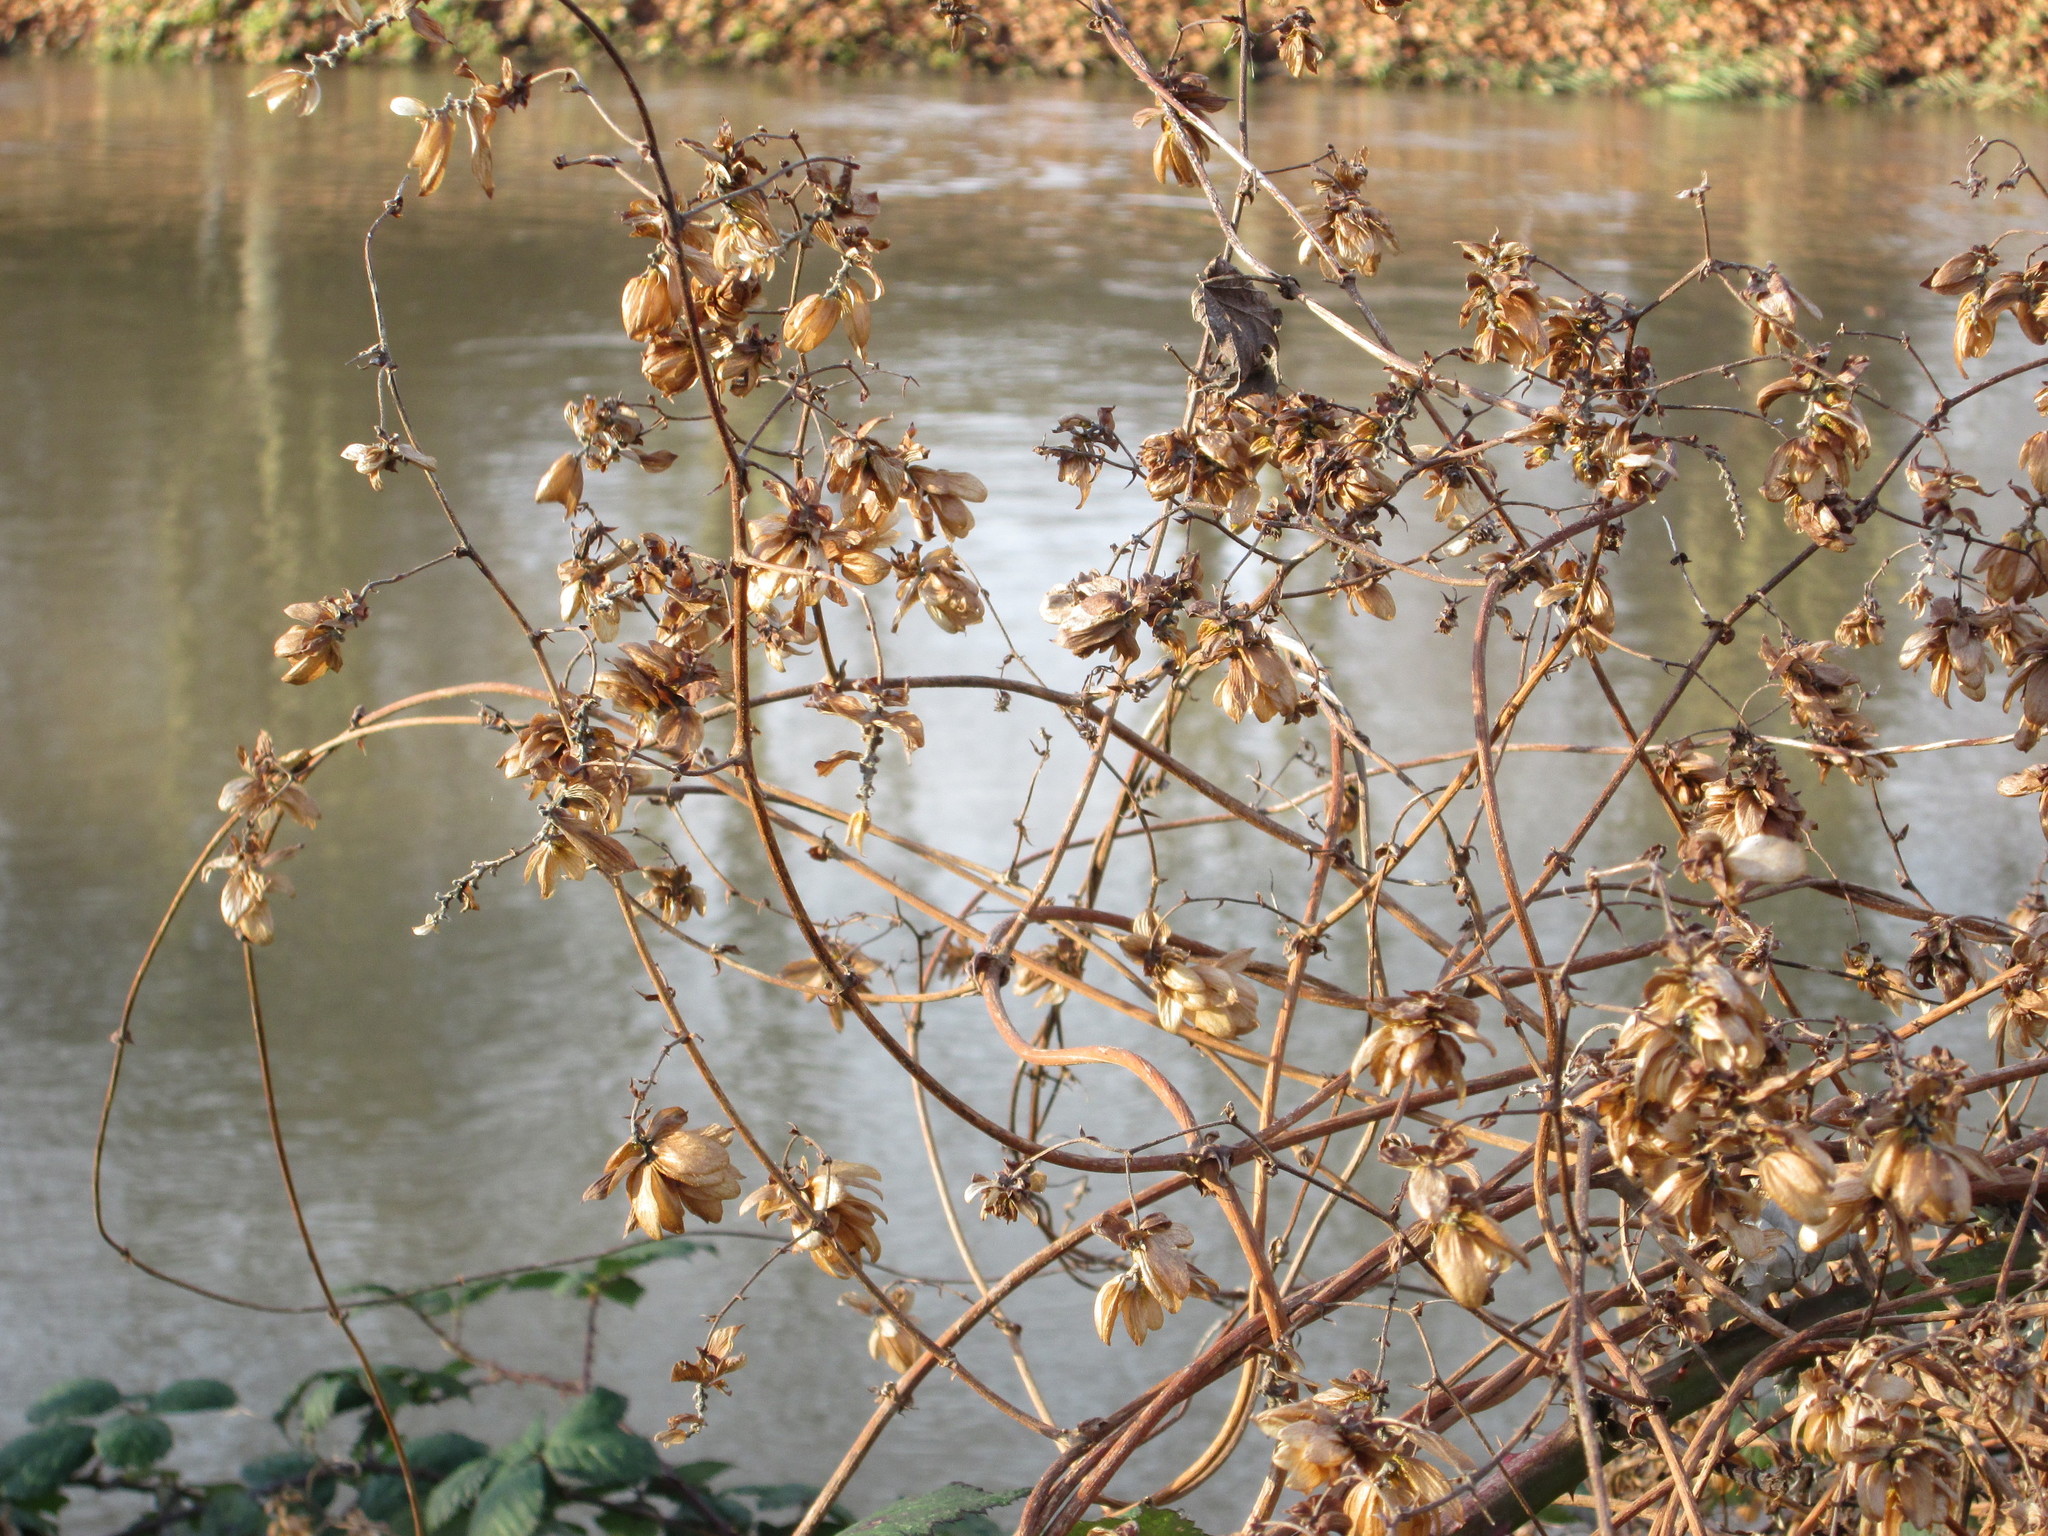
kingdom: Plantae
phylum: Tracheophyta
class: Magnoliopsida
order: Rosales
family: Cannabaceae
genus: Humulus
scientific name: Humulus lupulus
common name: Hop
